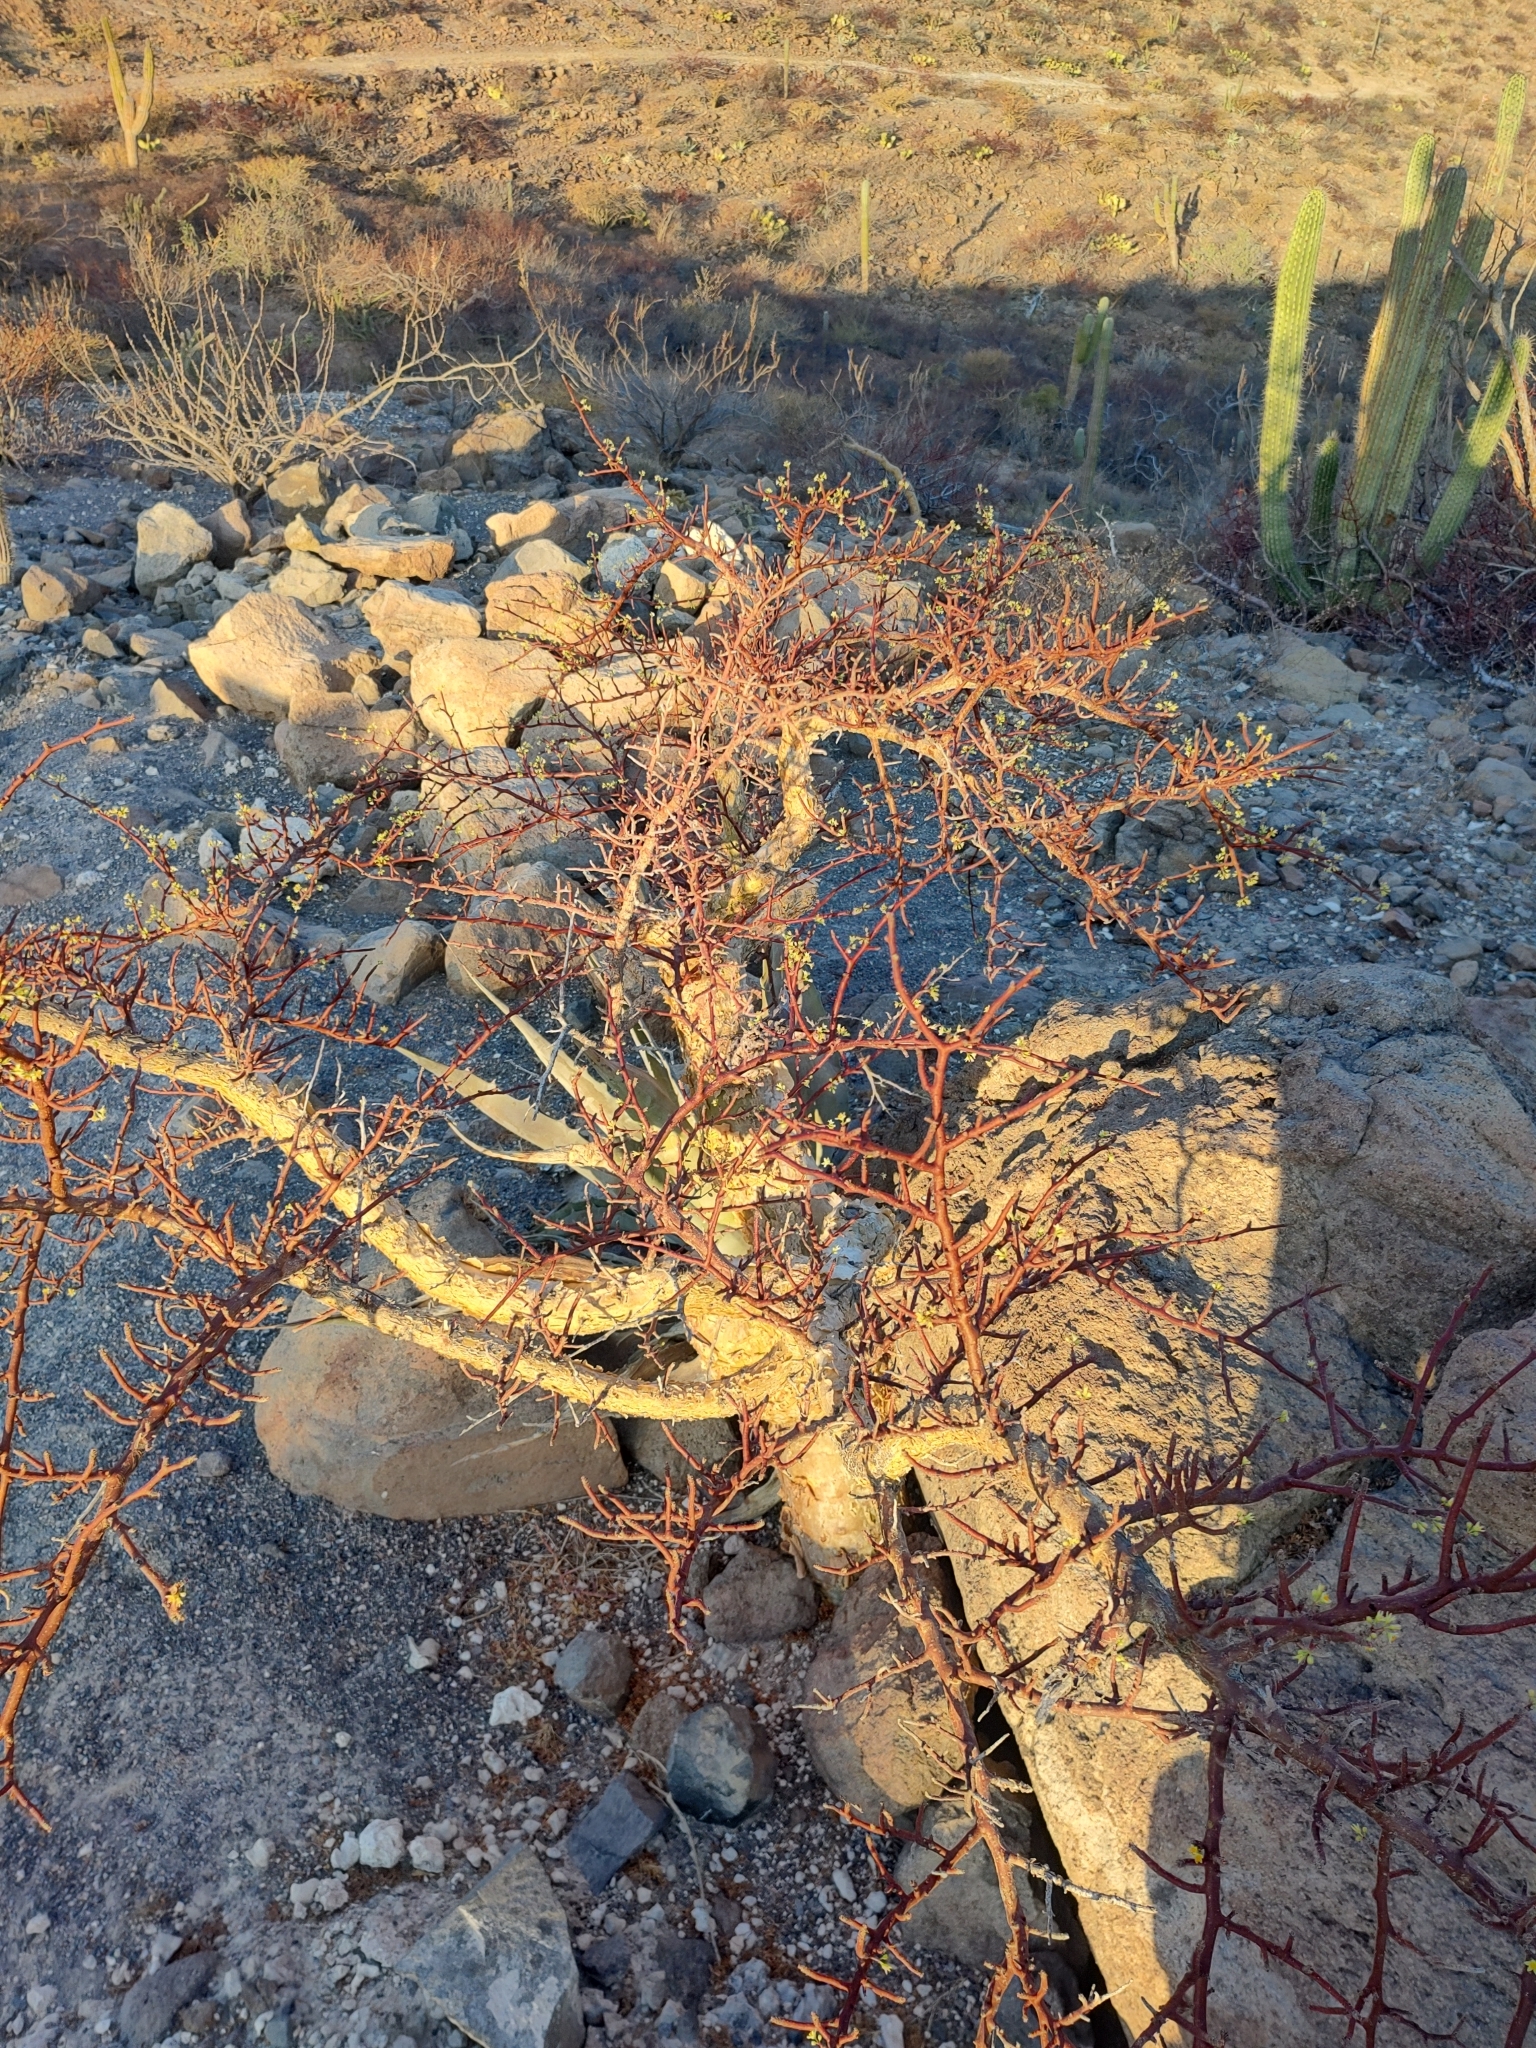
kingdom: Plantae
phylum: Tracheophyta
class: Magnoliopsida
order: Sapindales
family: Burseraceae
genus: Bursera
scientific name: Bursera microphylla
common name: Elephant tree
